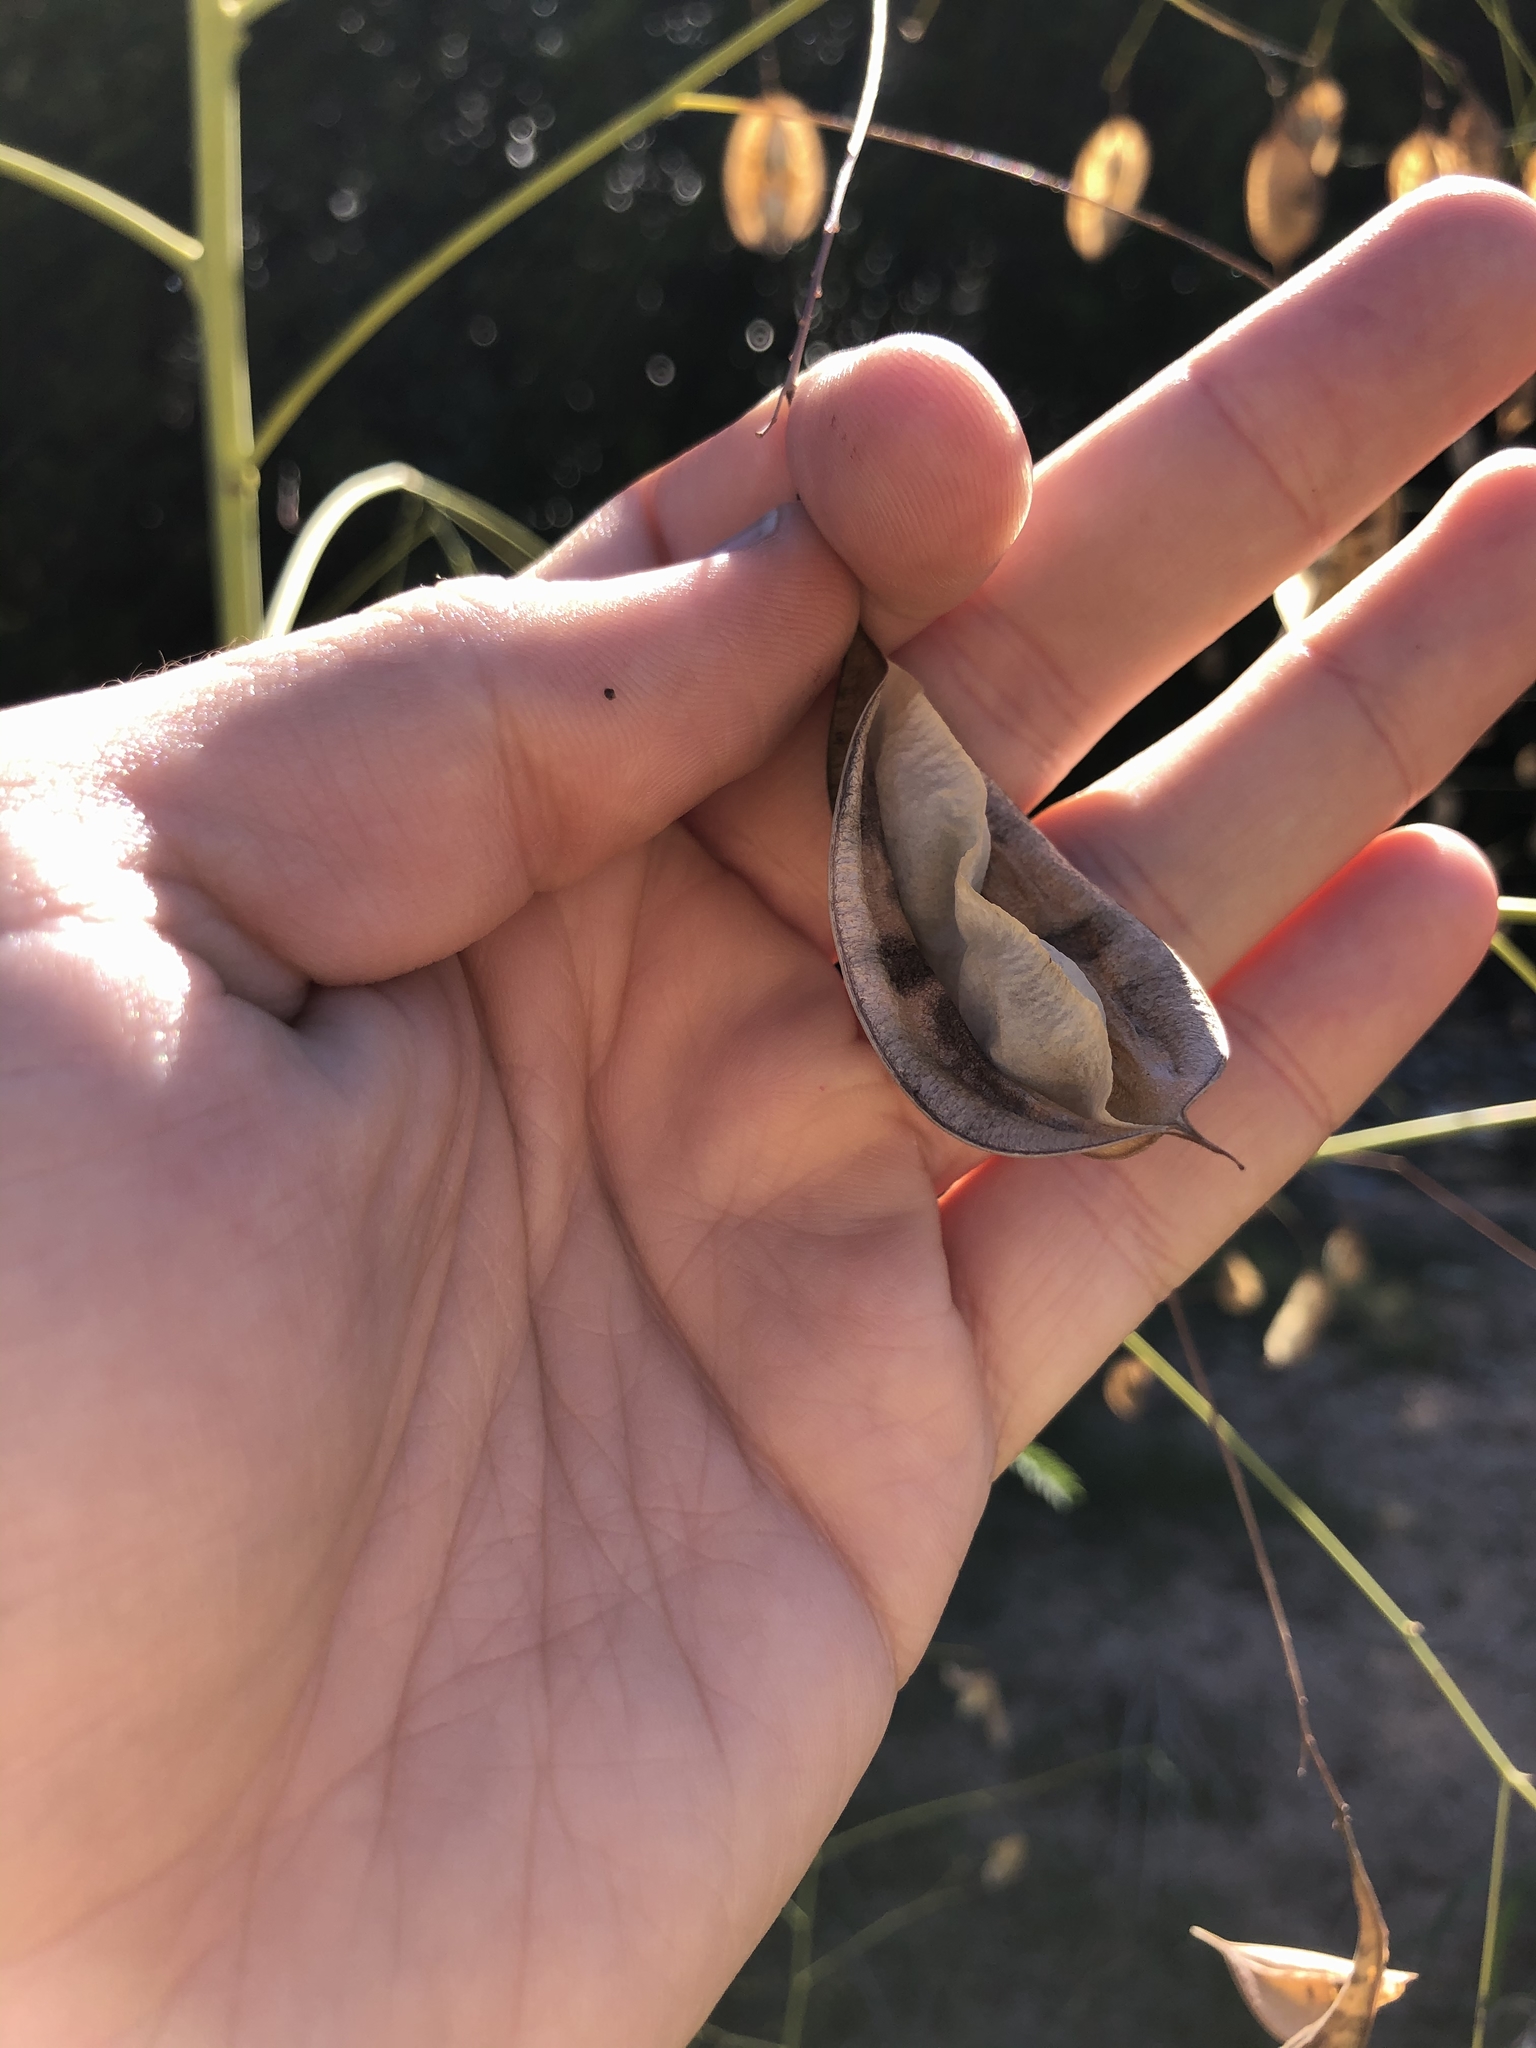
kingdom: Plantae
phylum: Tracheophyta
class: Magnoliopsida
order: Fabales
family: Fabaceae
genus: Sesbania
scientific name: Sesbania vesicaria
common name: Bagpod
